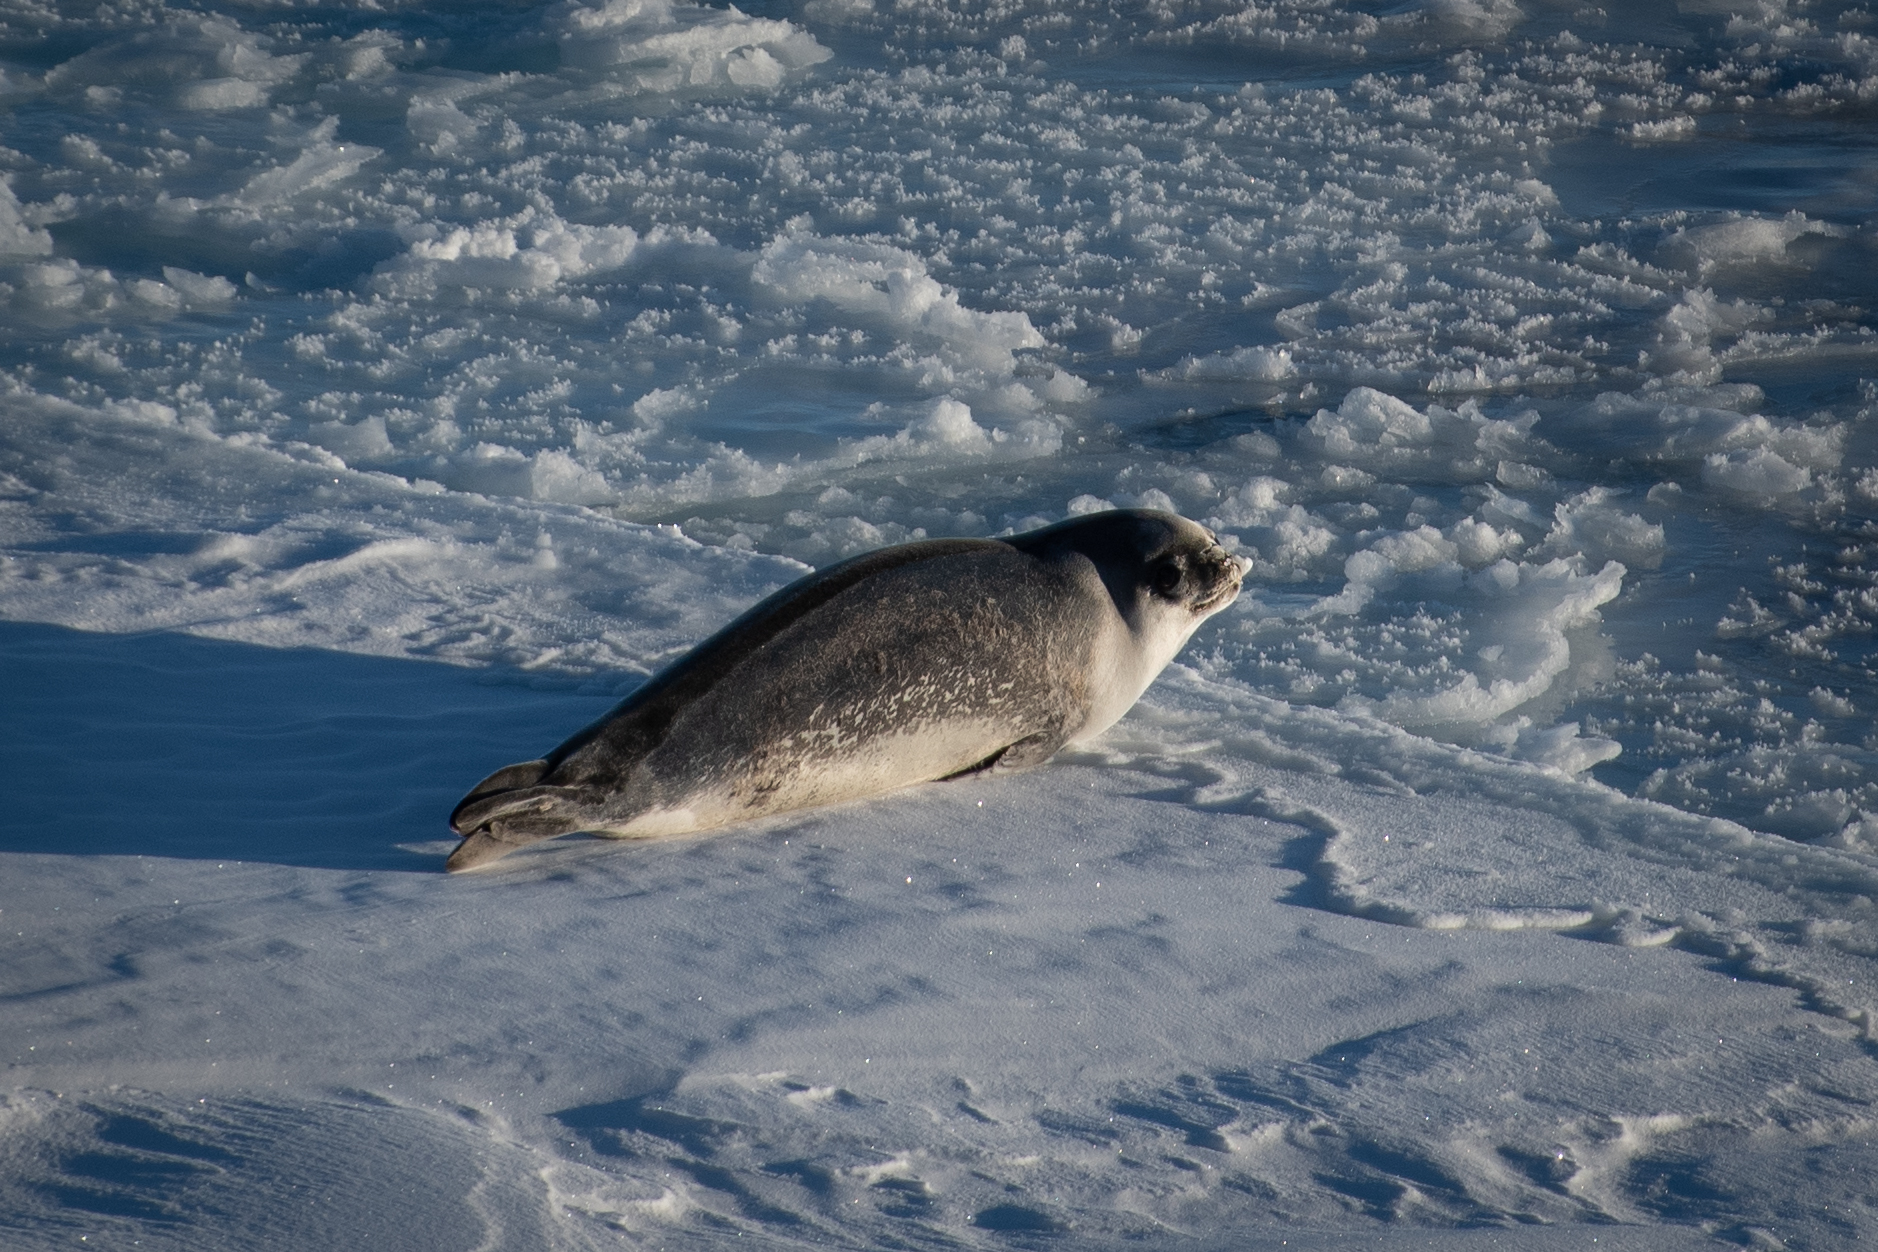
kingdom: Animalia
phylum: Chordata
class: Mammalia
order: Carnivora
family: Phocidae
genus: Ommatophoca
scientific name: Ommatophoca rossii
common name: Ross seal
